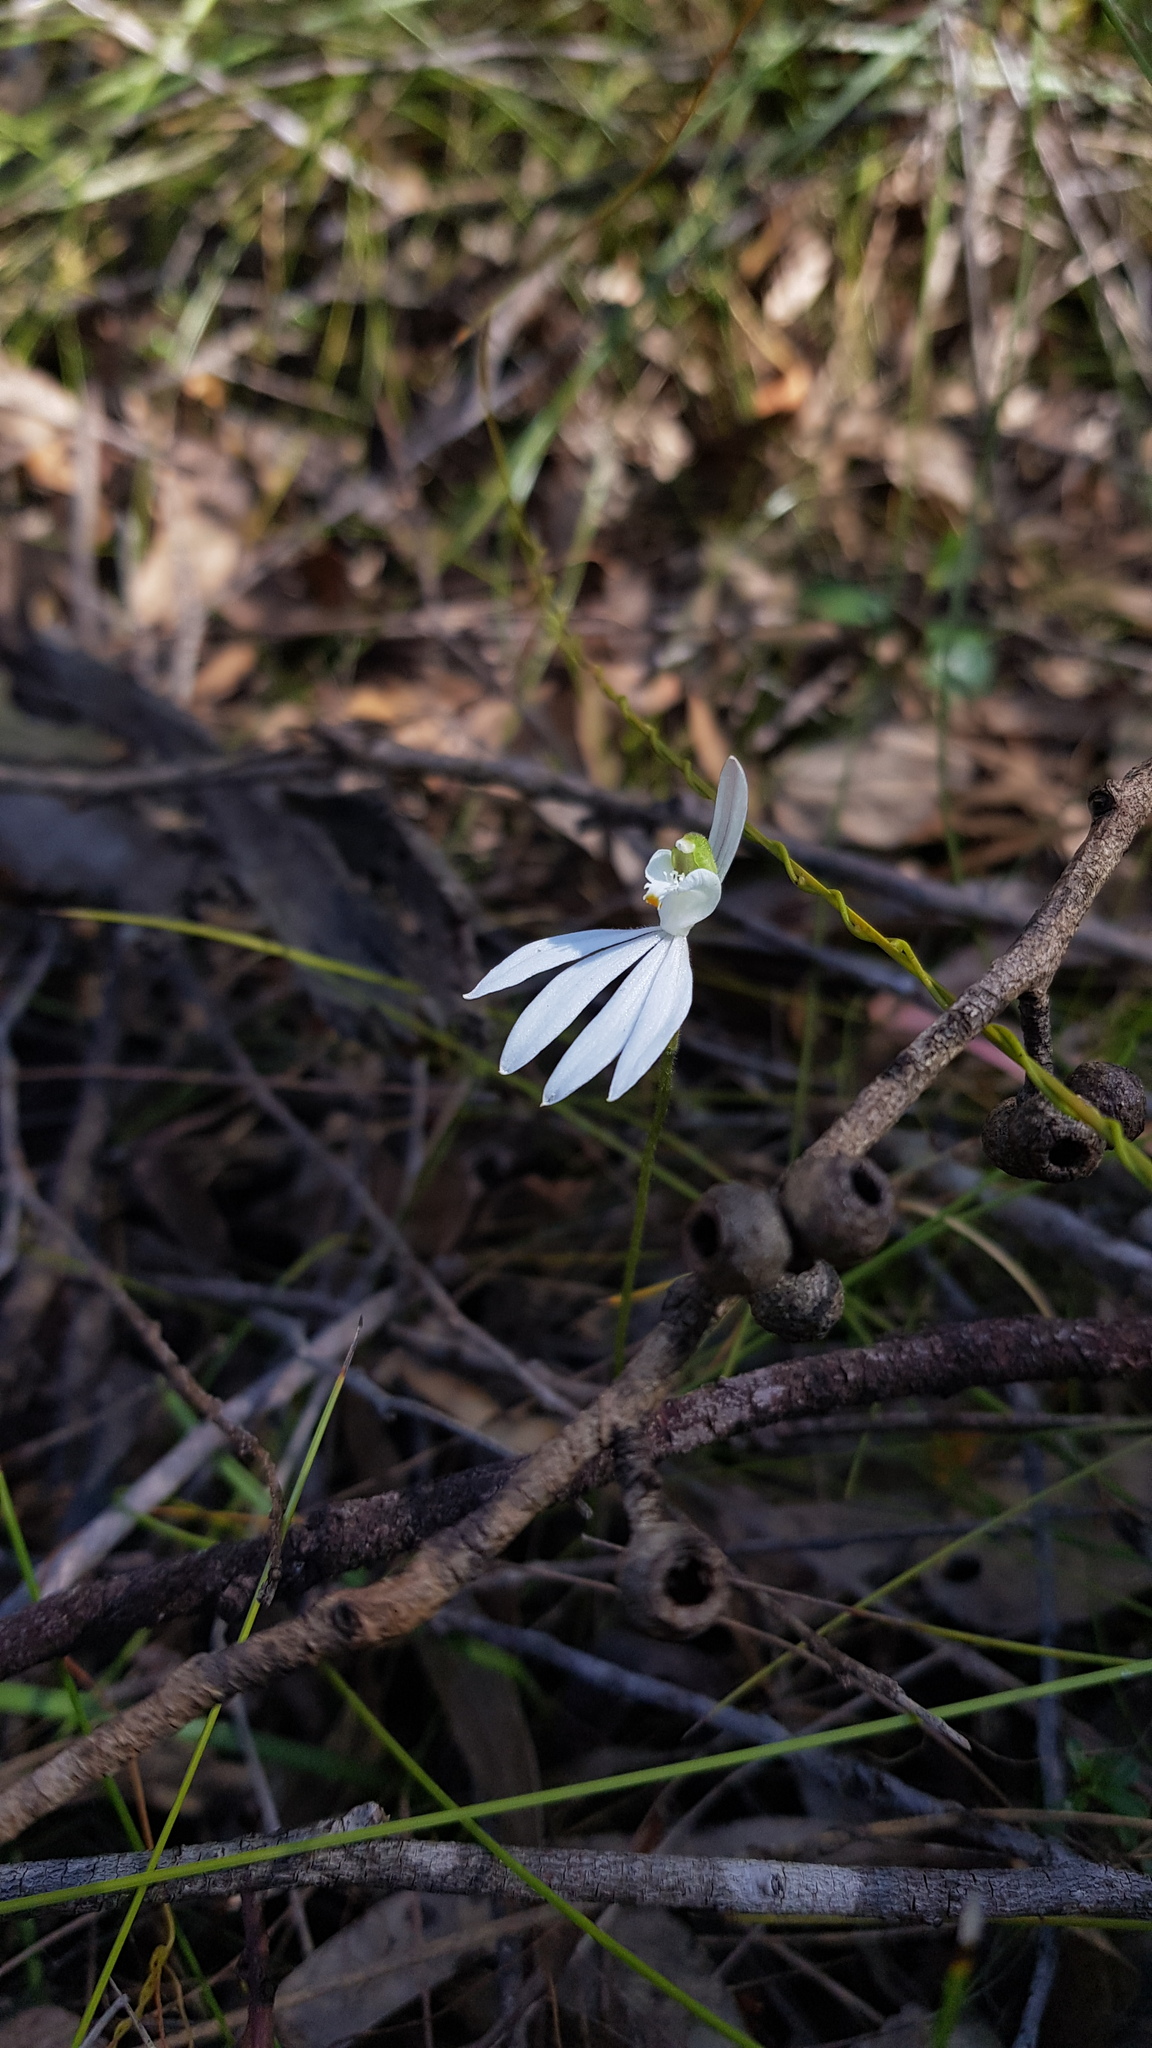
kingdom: Plantae
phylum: Tracheophyta
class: Liliopsida
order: Asparagales
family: Orchidaceae
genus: Caladenia
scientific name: Caladenia catenata
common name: White caladenia
